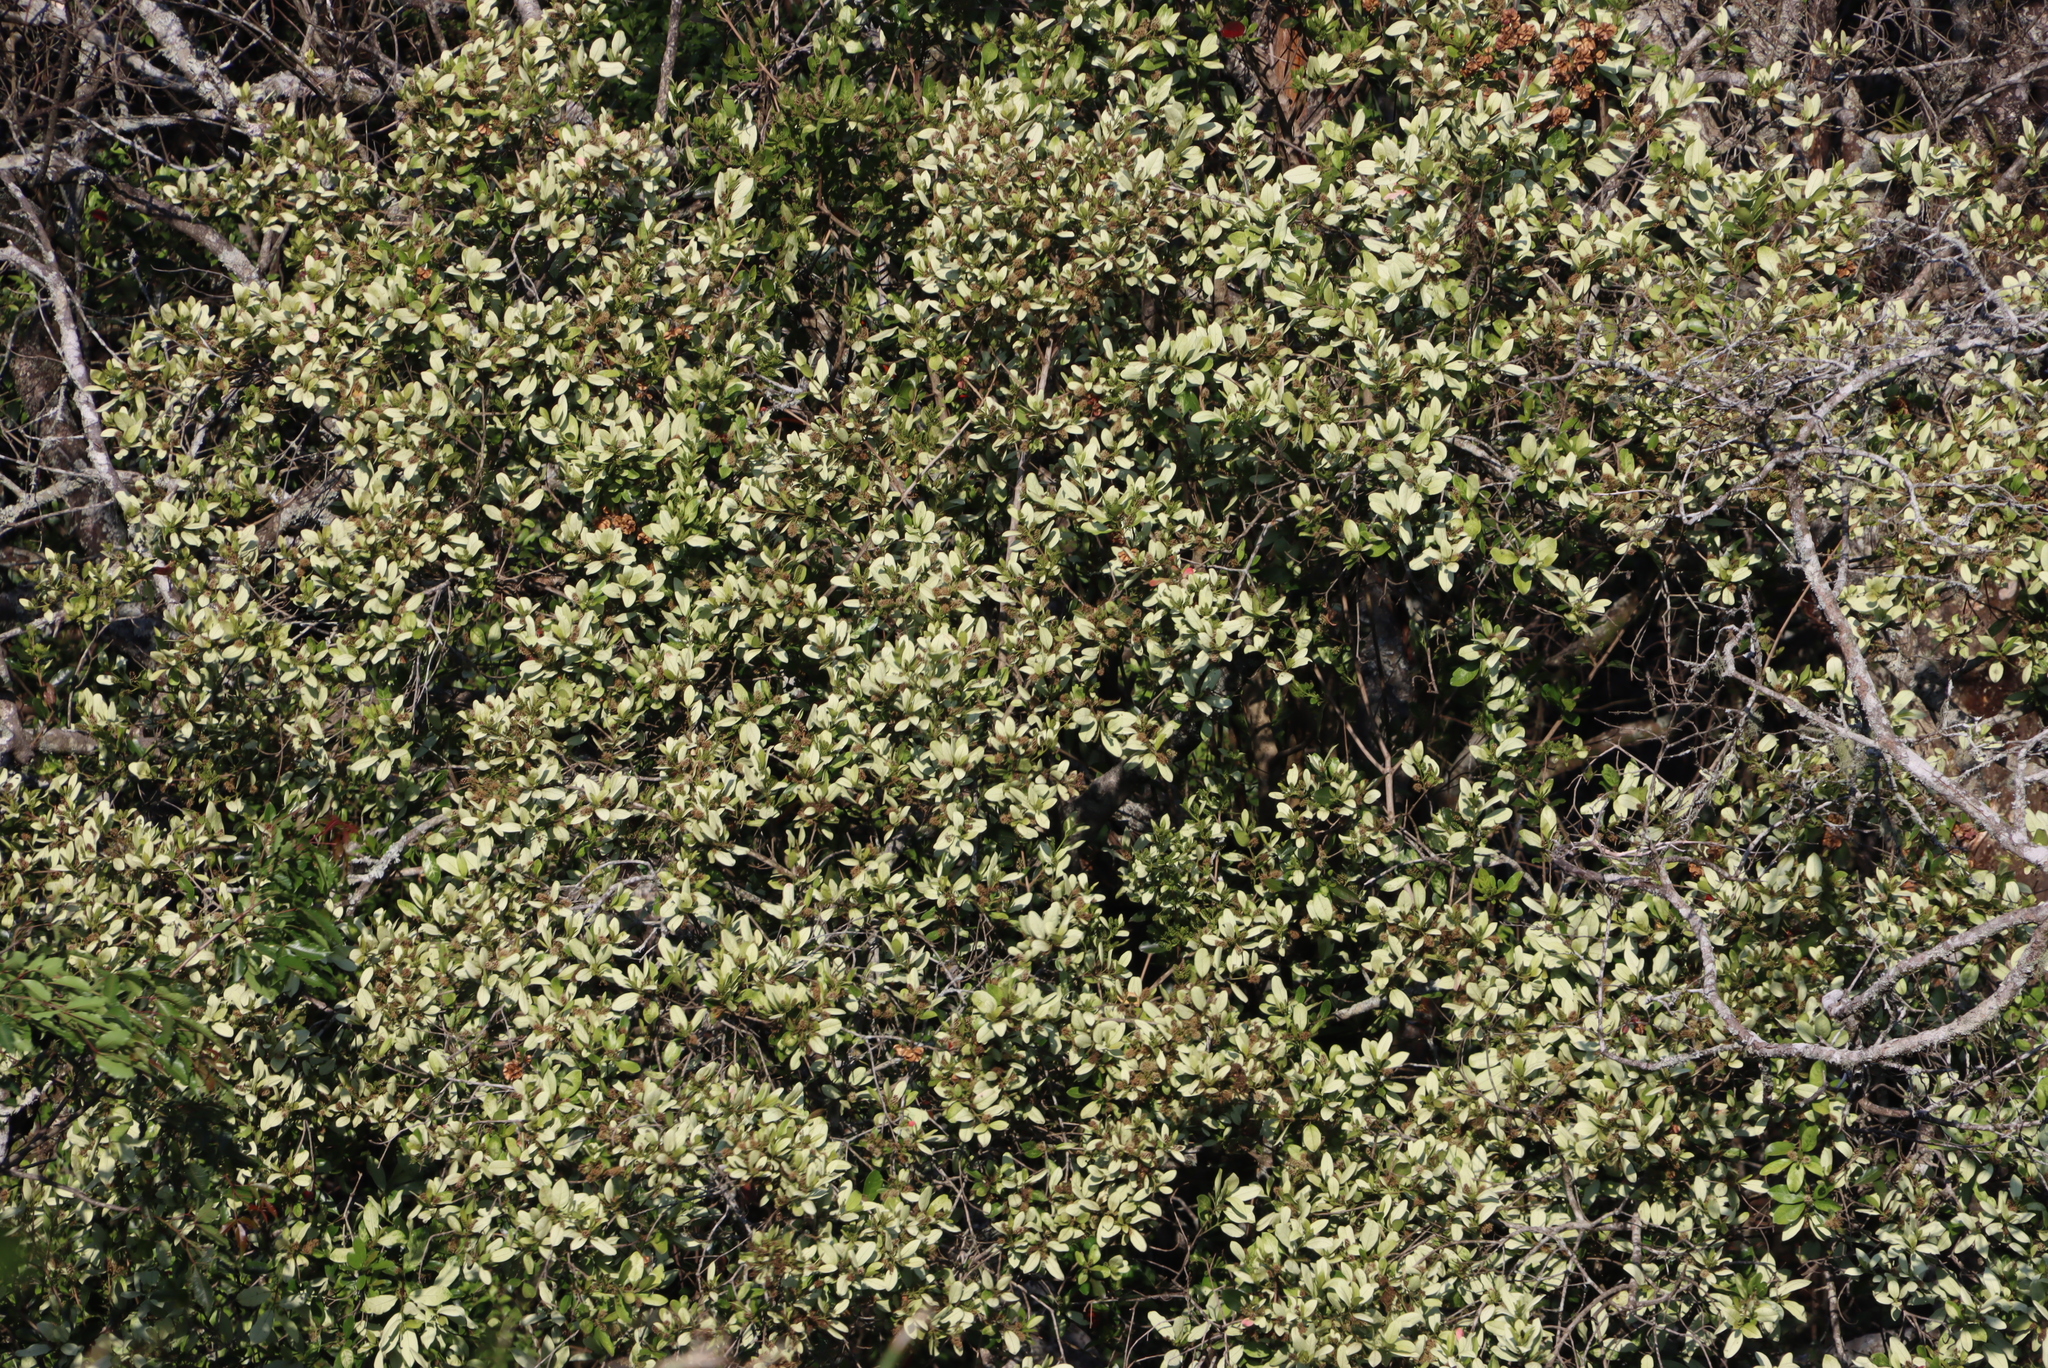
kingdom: Plantae
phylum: Tracheophyta
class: Magnoliopsida
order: Myrtales
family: Combretaceae
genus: Combretum
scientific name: Combretum kraussii
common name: Forest bushwillow
